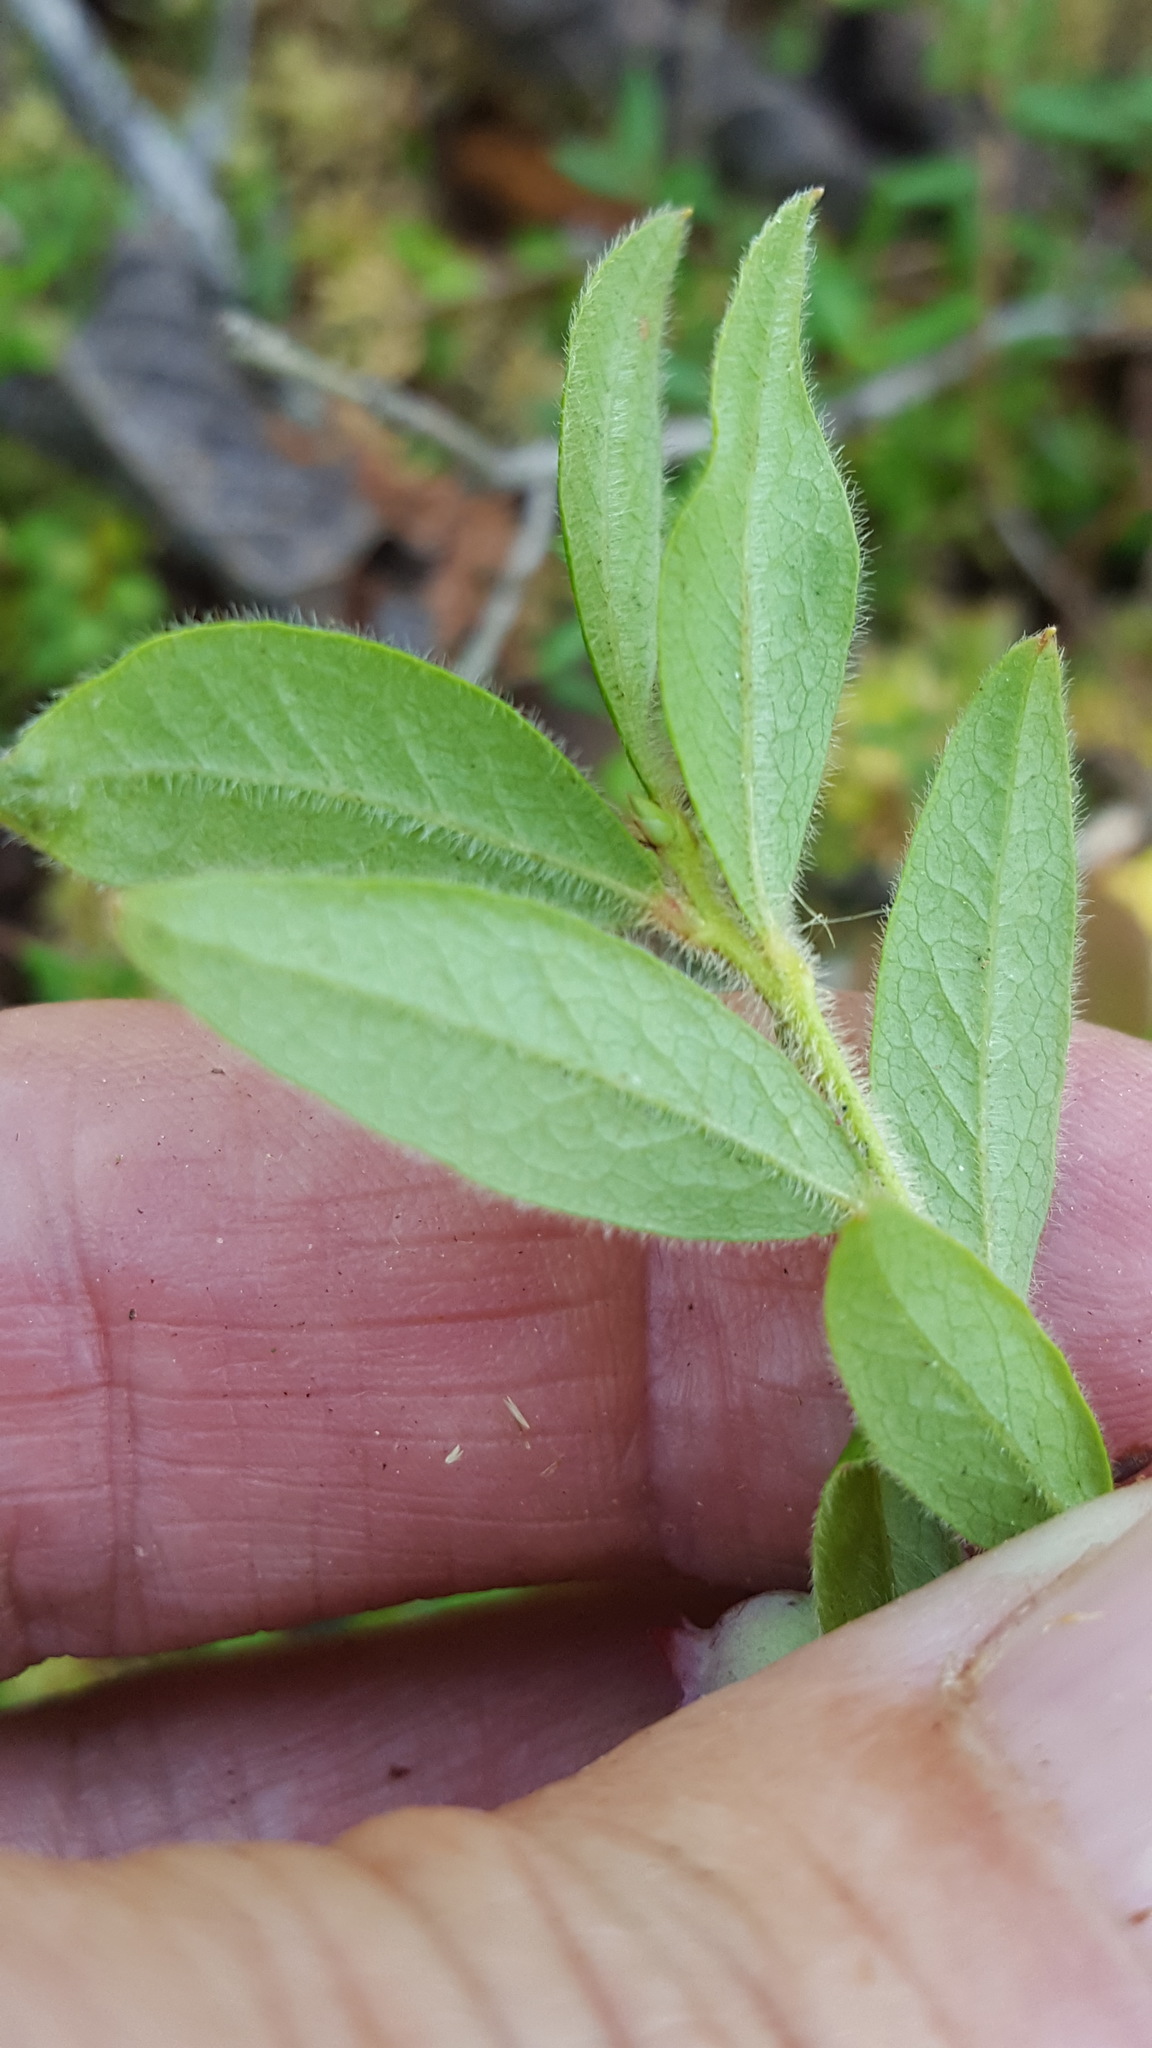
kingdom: Plantae
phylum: Tracheophyta
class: Magnoliopsida
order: Ericales
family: Ericaceae
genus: Vaccinium
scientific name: Vaccinium myrtilloides
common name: Canada blueberry
